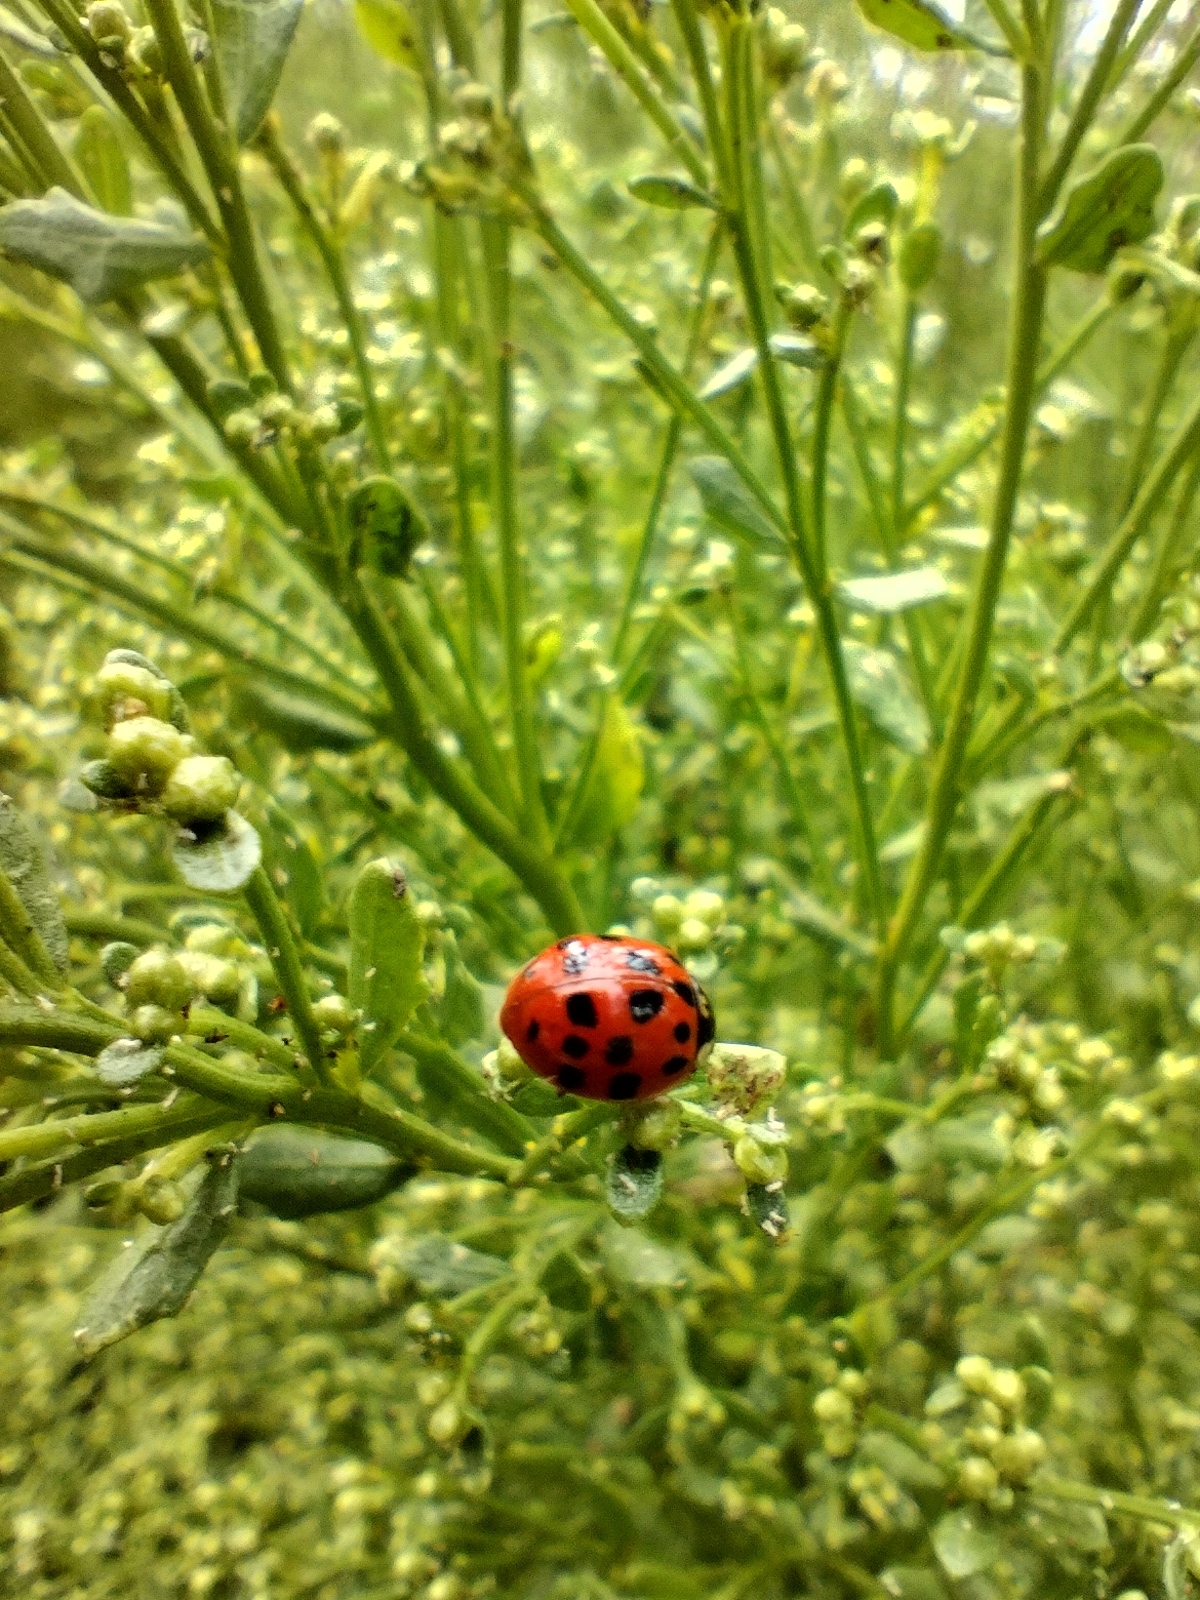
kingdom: Animalia
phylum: Arthropoda
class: Insecta
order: Coleoptera
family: Coccinellidae
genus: Harmonia
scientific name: Harmonia axyridis
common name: Harlequin ladybird
